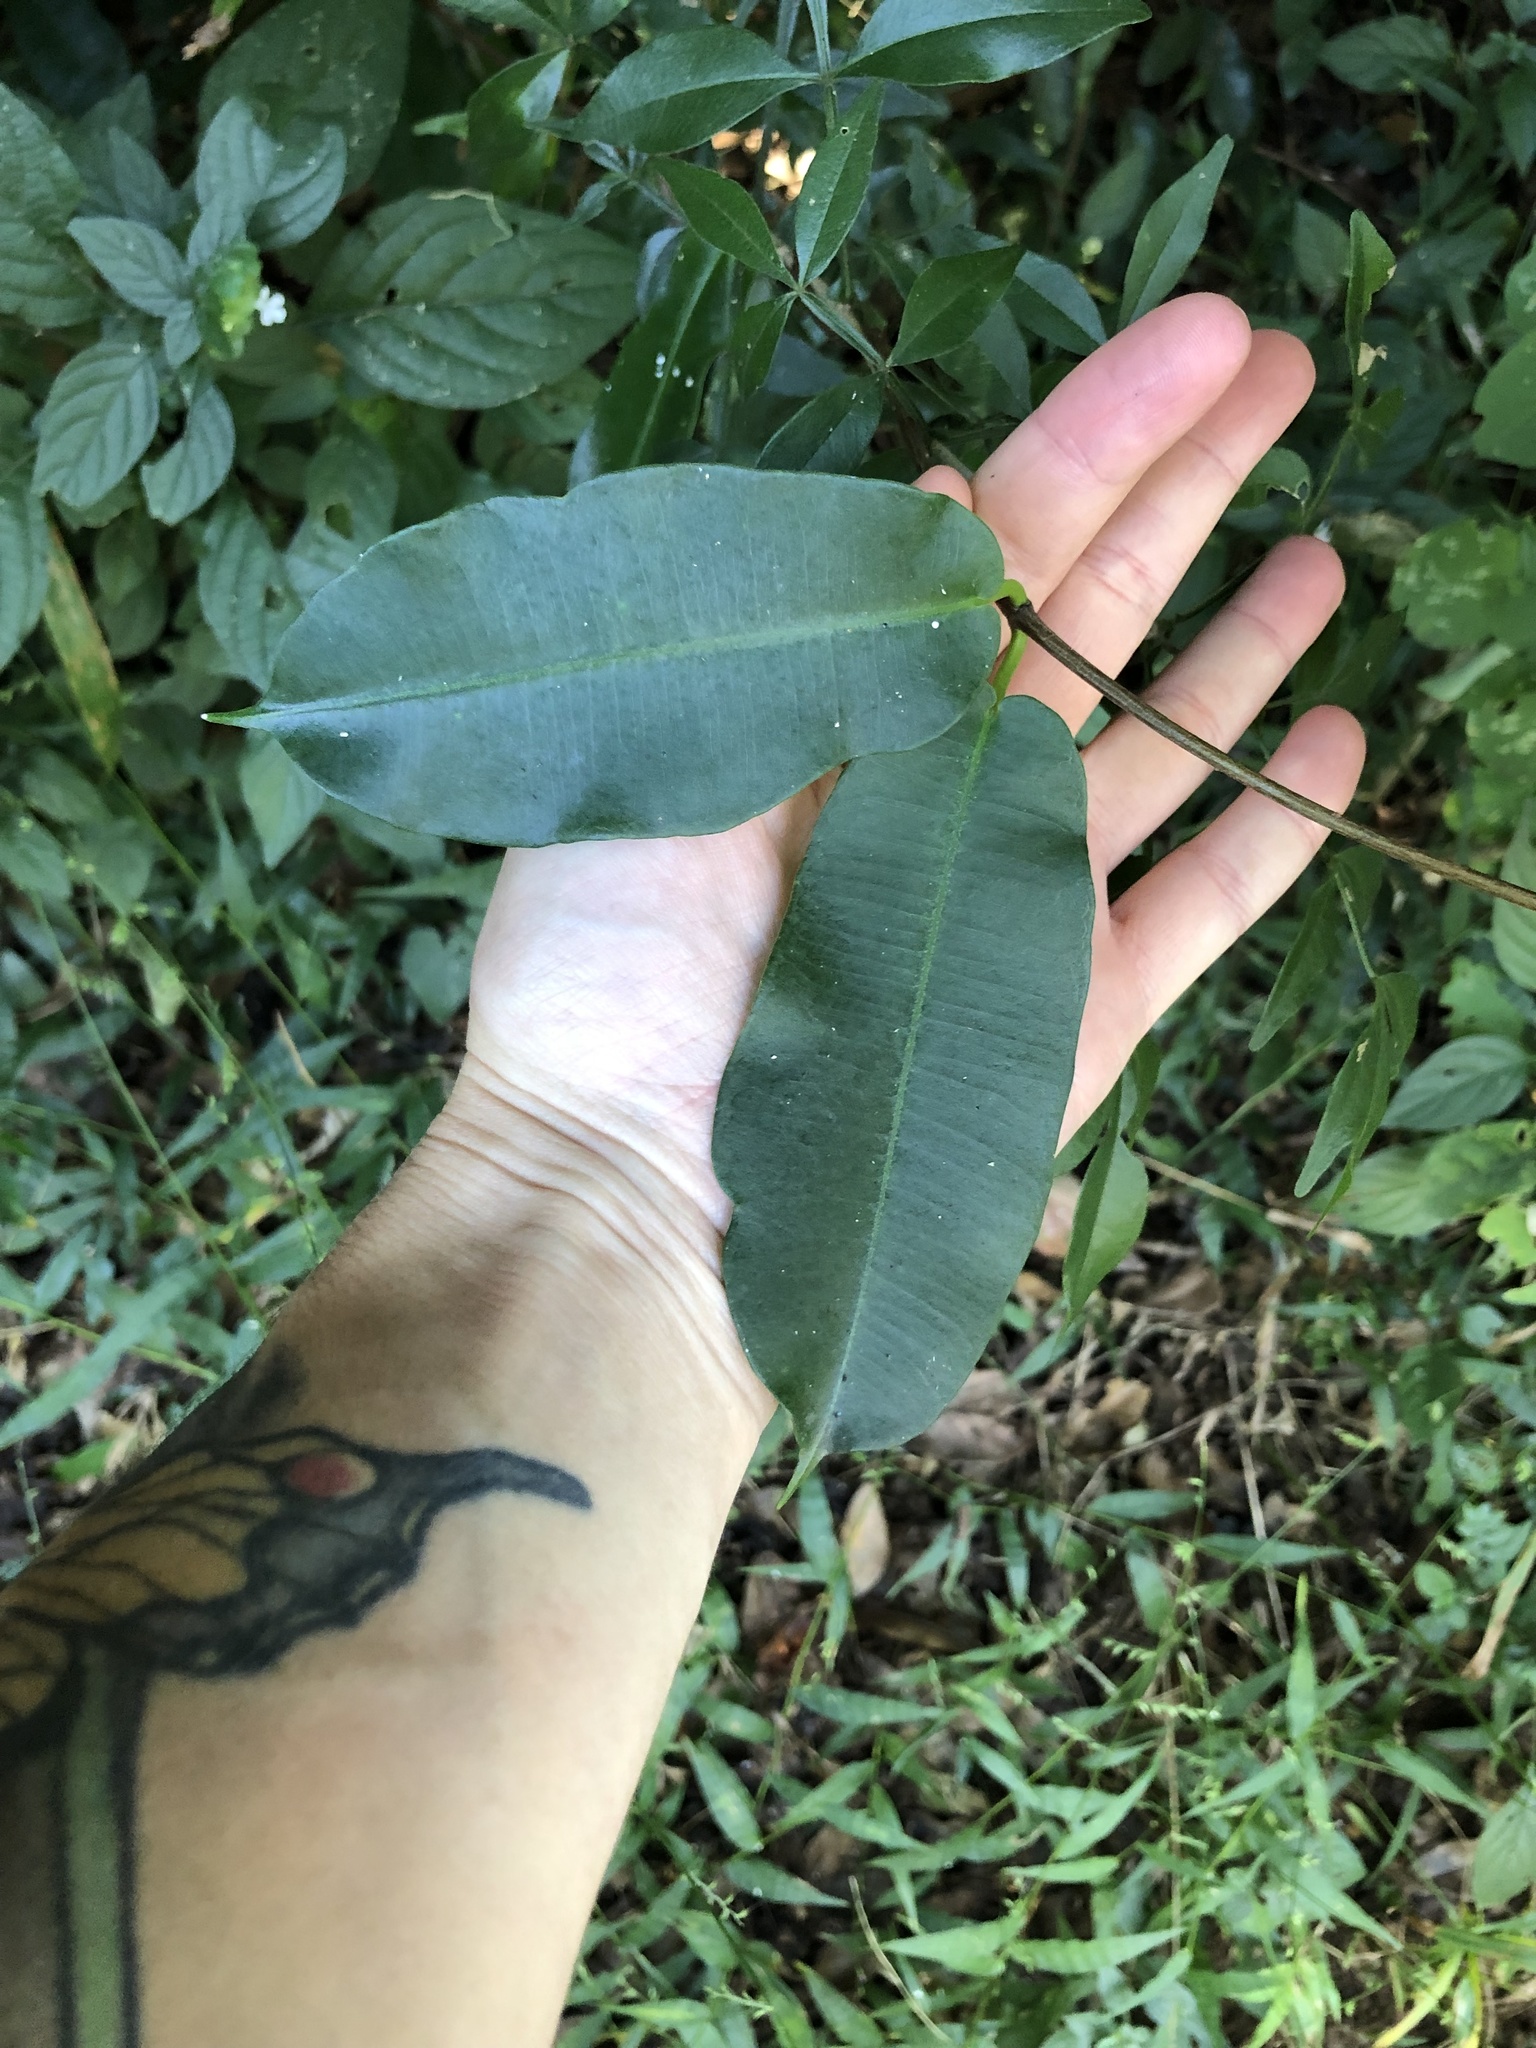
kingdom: Plantae
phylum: Tracheophyta
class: Magnoliopsida
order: Gentianales
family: Apocynaceae
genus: Petopentia
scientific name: Petopentia natalensis
